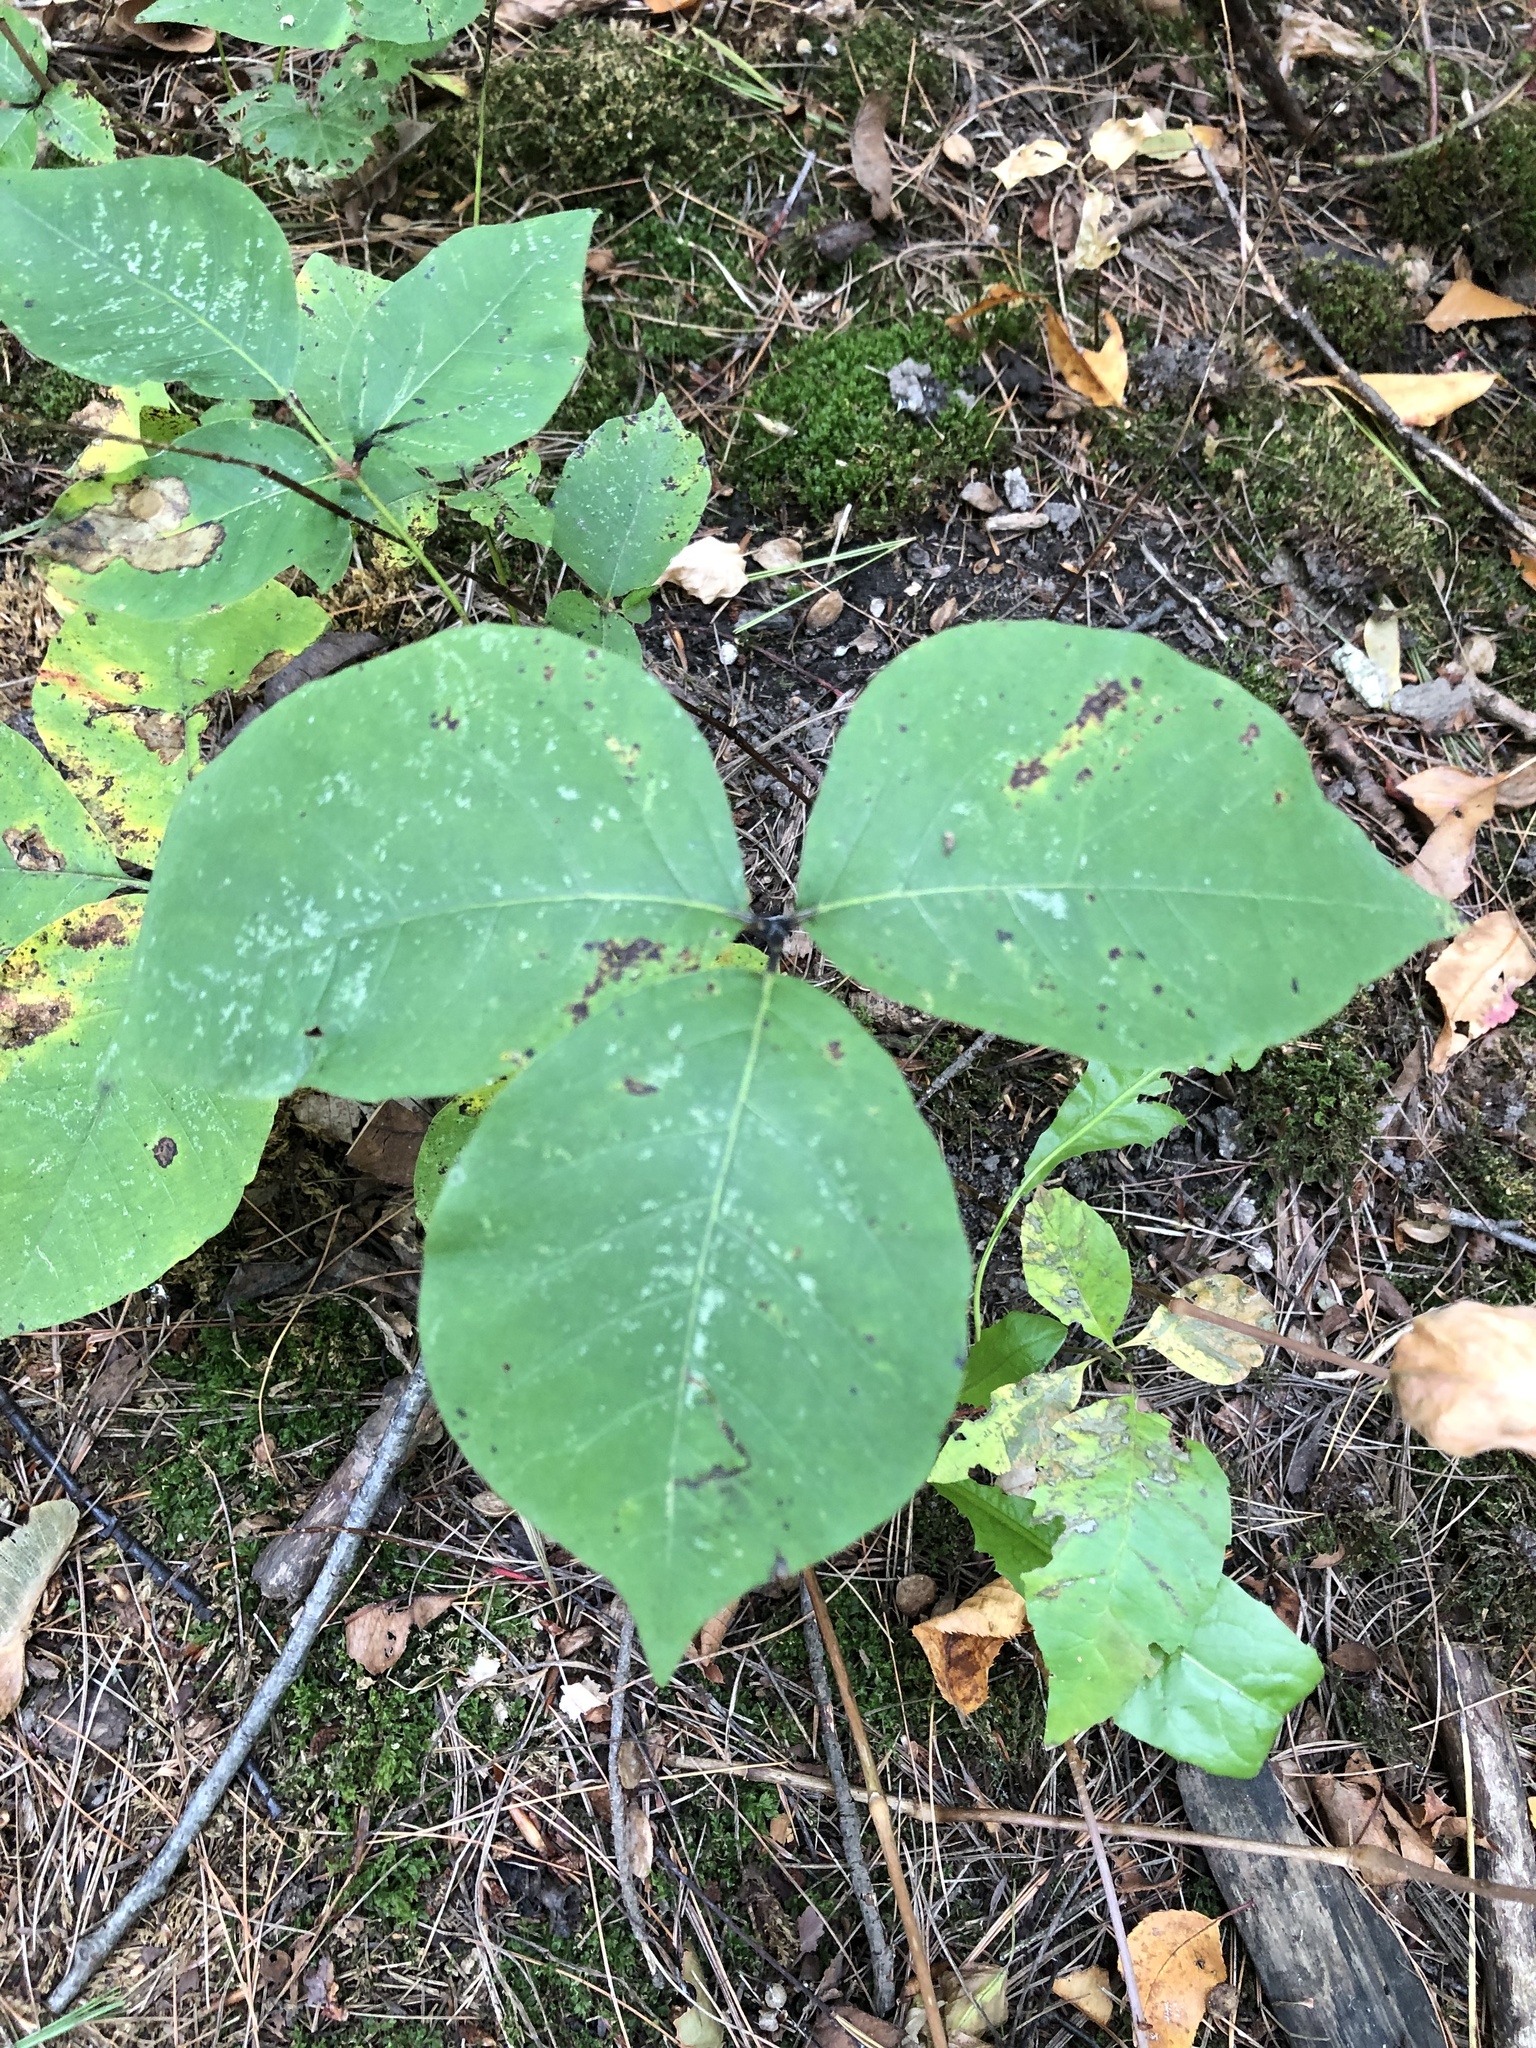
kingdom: Plantae
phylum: Tracheophyta
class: Magnoliopsida
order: Sapindales
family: Anacardiaceae
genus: Toxicodendron
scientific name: Toxicodendron rydbergii
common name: Rydberg's poison-ivy
